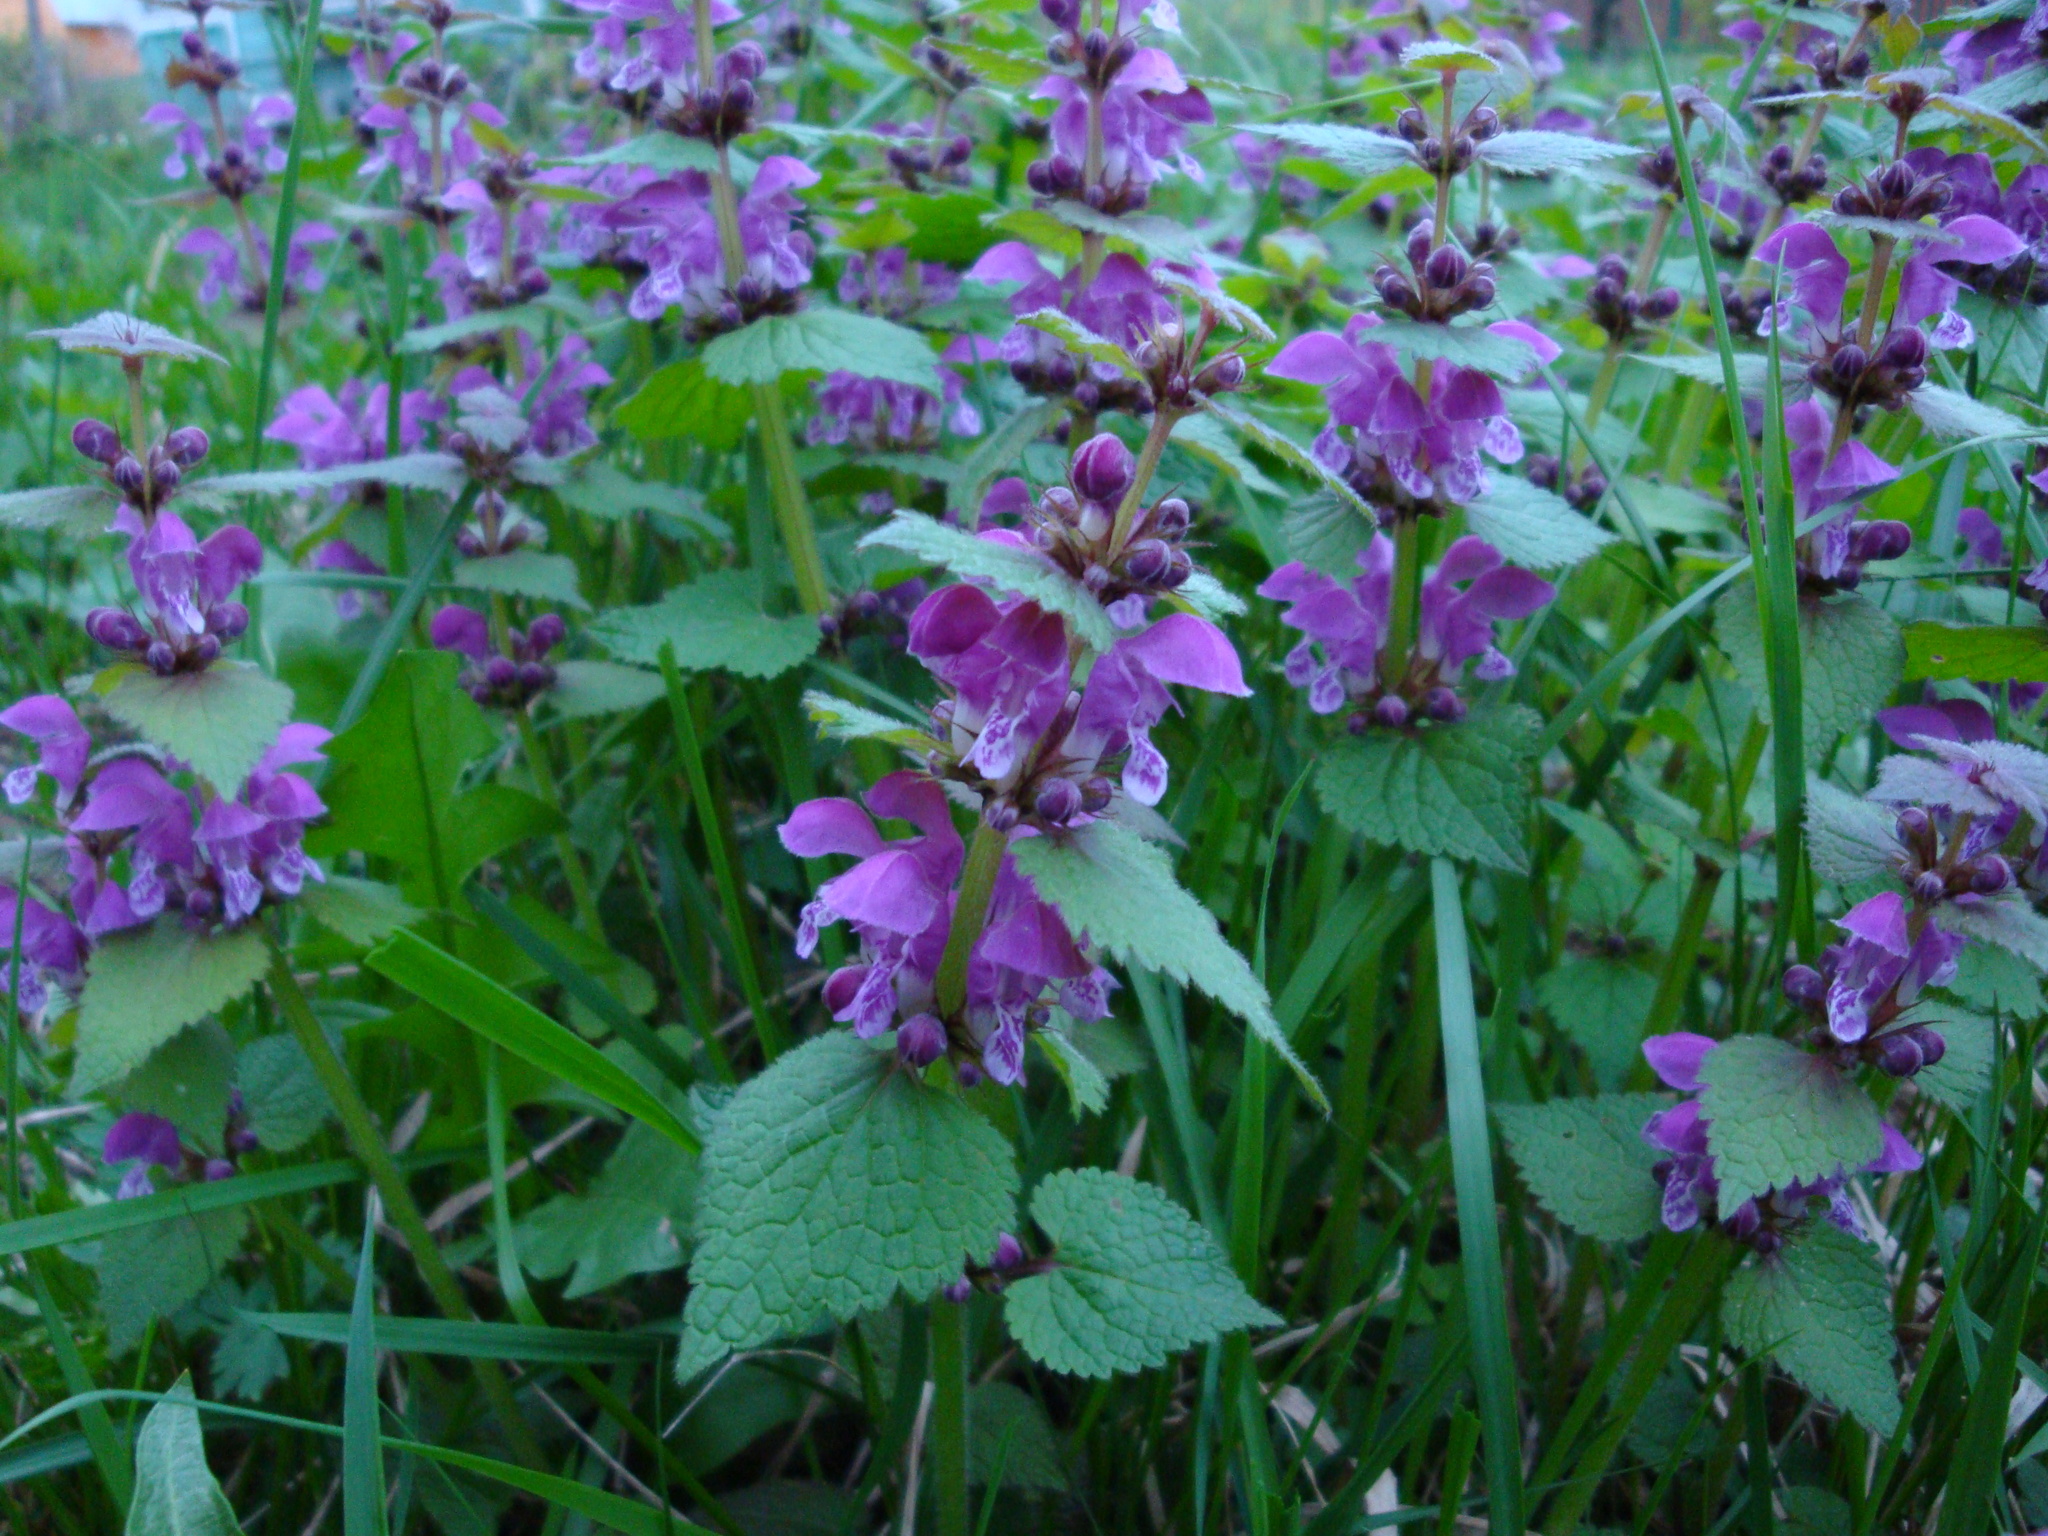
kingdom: Plantae
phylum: Tracheophyta
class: Magnoliopsida
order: Lamiales
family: Lamiaceae
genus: Lamium
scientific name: Lamium maculatum
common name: Spotted dead-nettle
